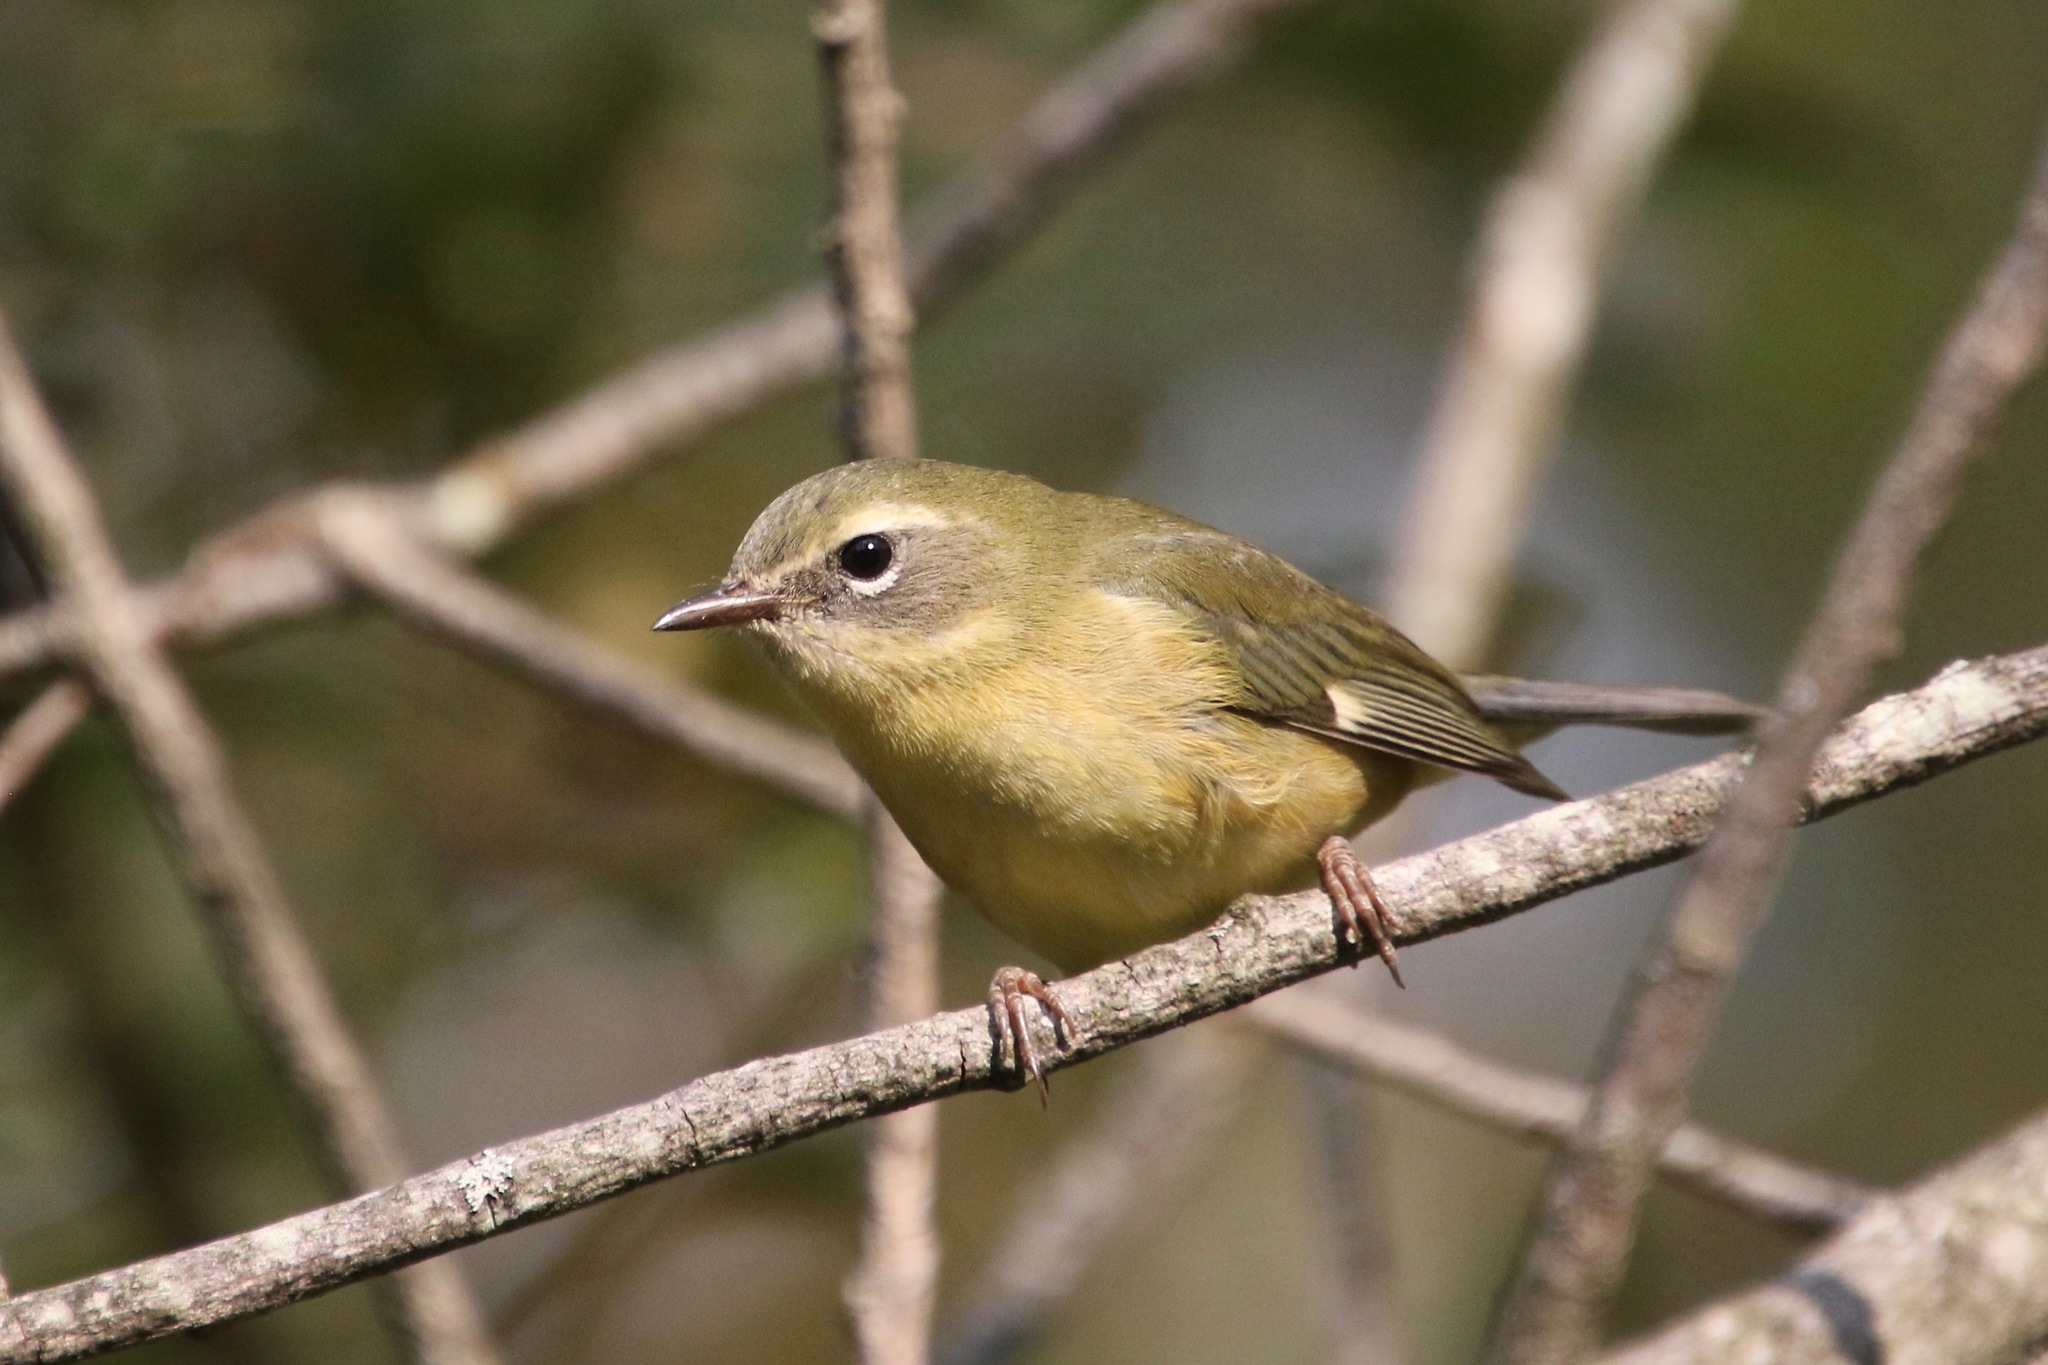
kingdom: Animalia
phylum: Chordata
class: Aves
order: Passeriformes
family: Parulidae
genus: Setophaga
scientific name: Setophaga caerulescens
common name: Black-throated blue warbler
